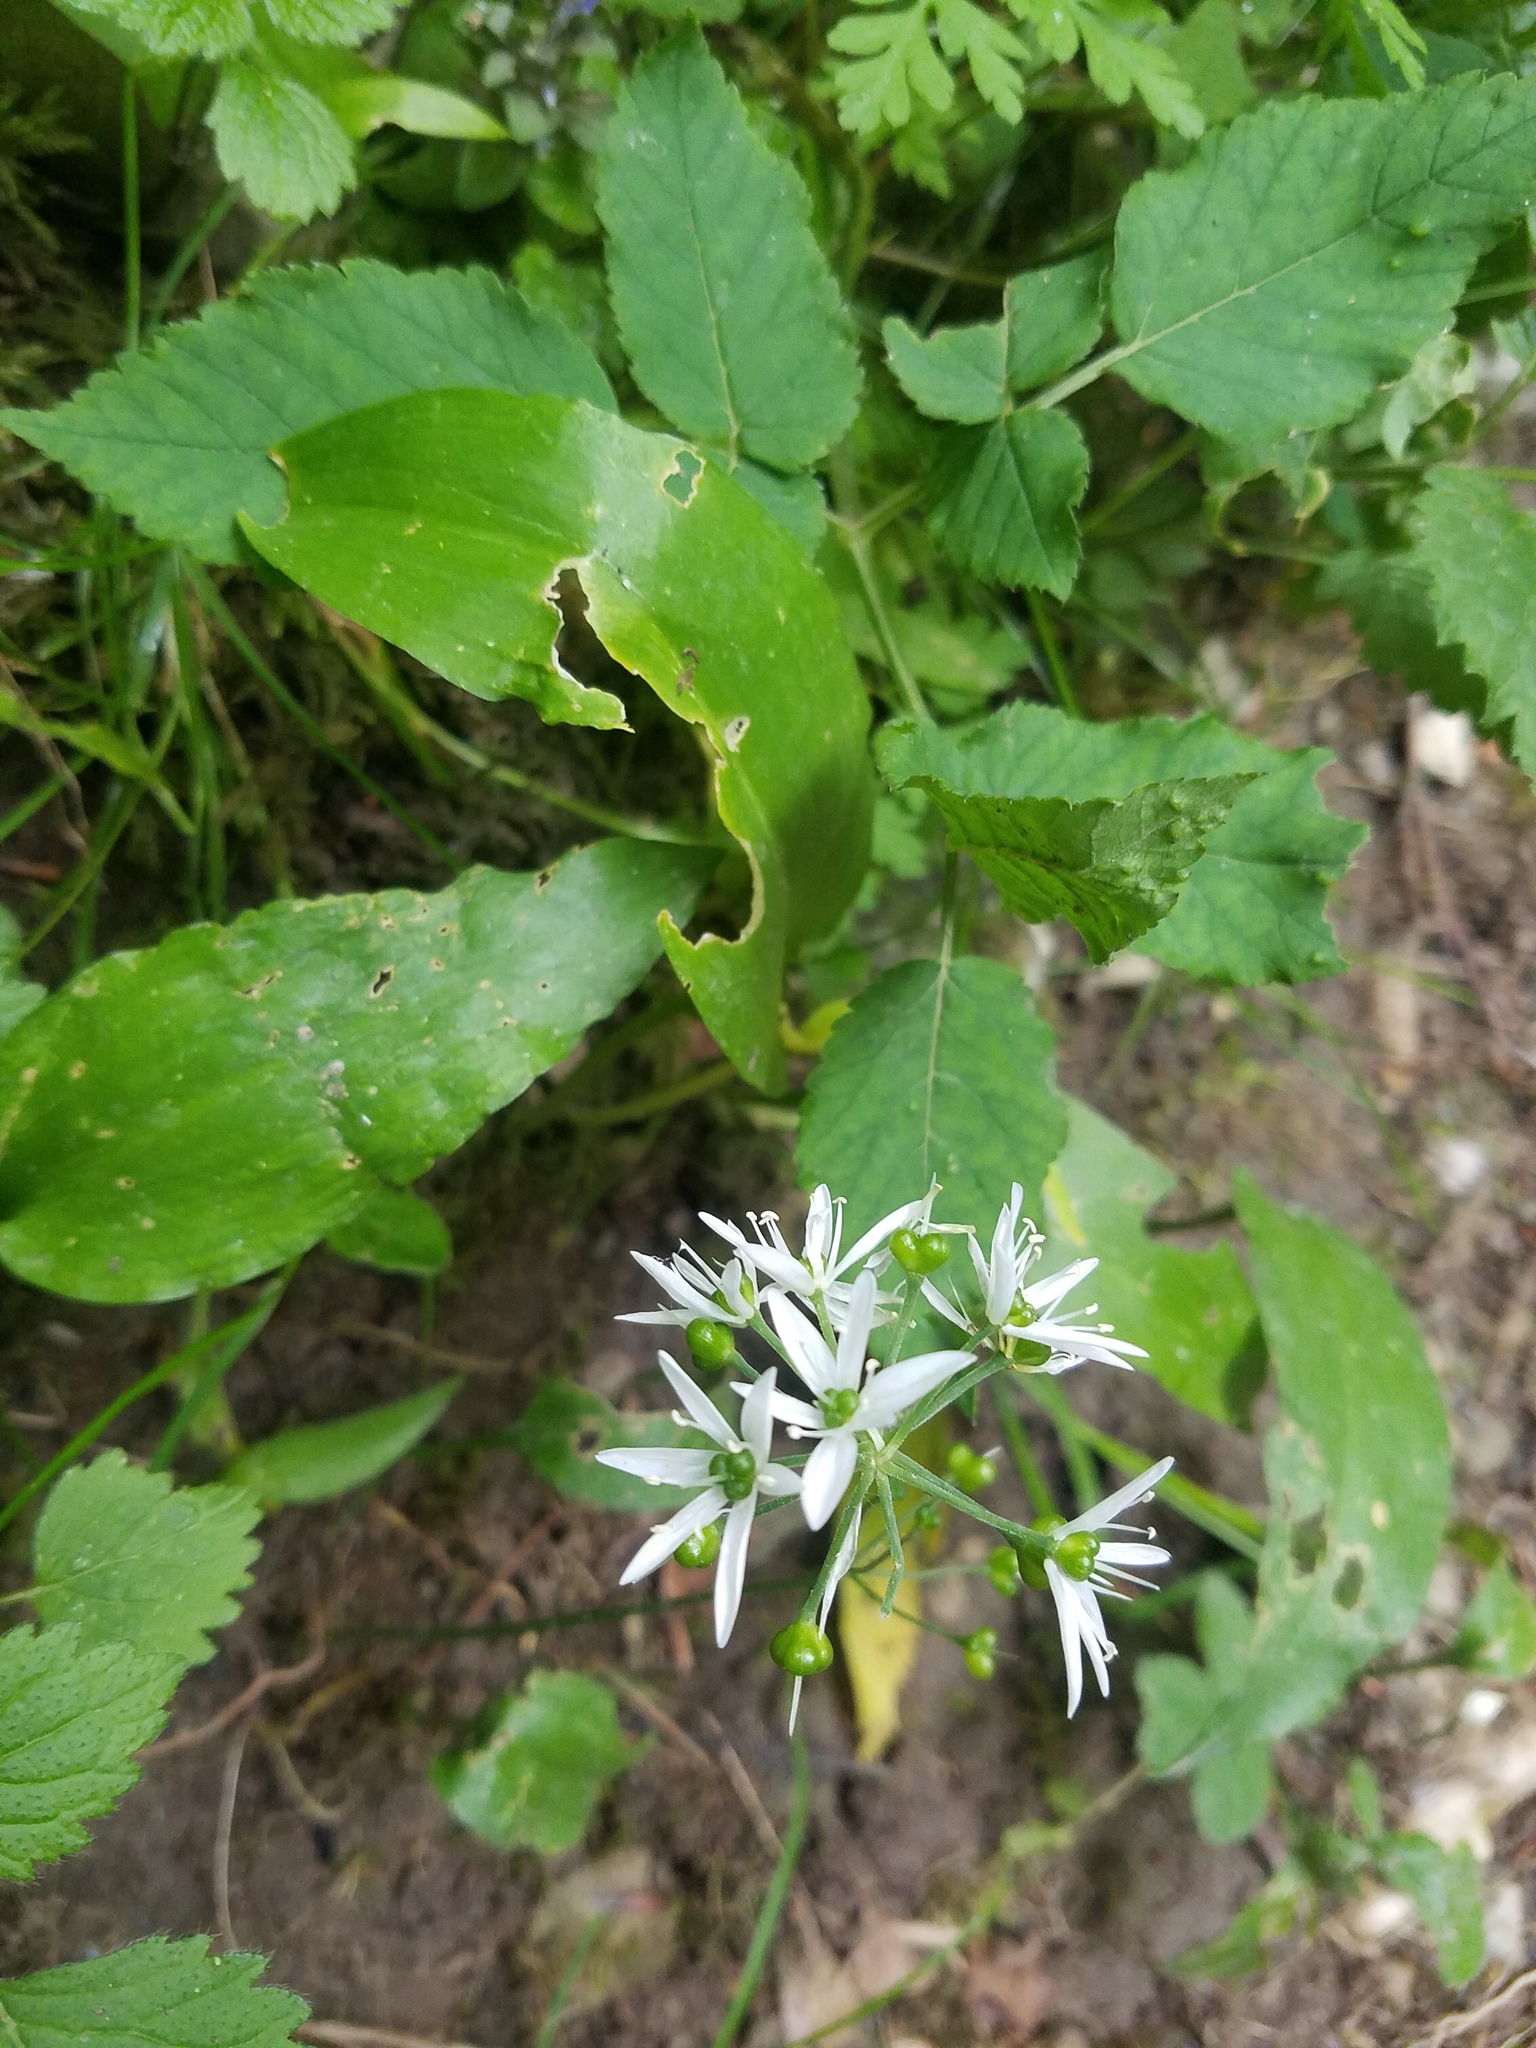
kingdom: Plantae
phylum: Tracheophyta
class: Liliopsida
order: Asparagales
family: Amaryllidaceae
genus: Allium
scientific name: Allium ursinum
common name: Ramsons
